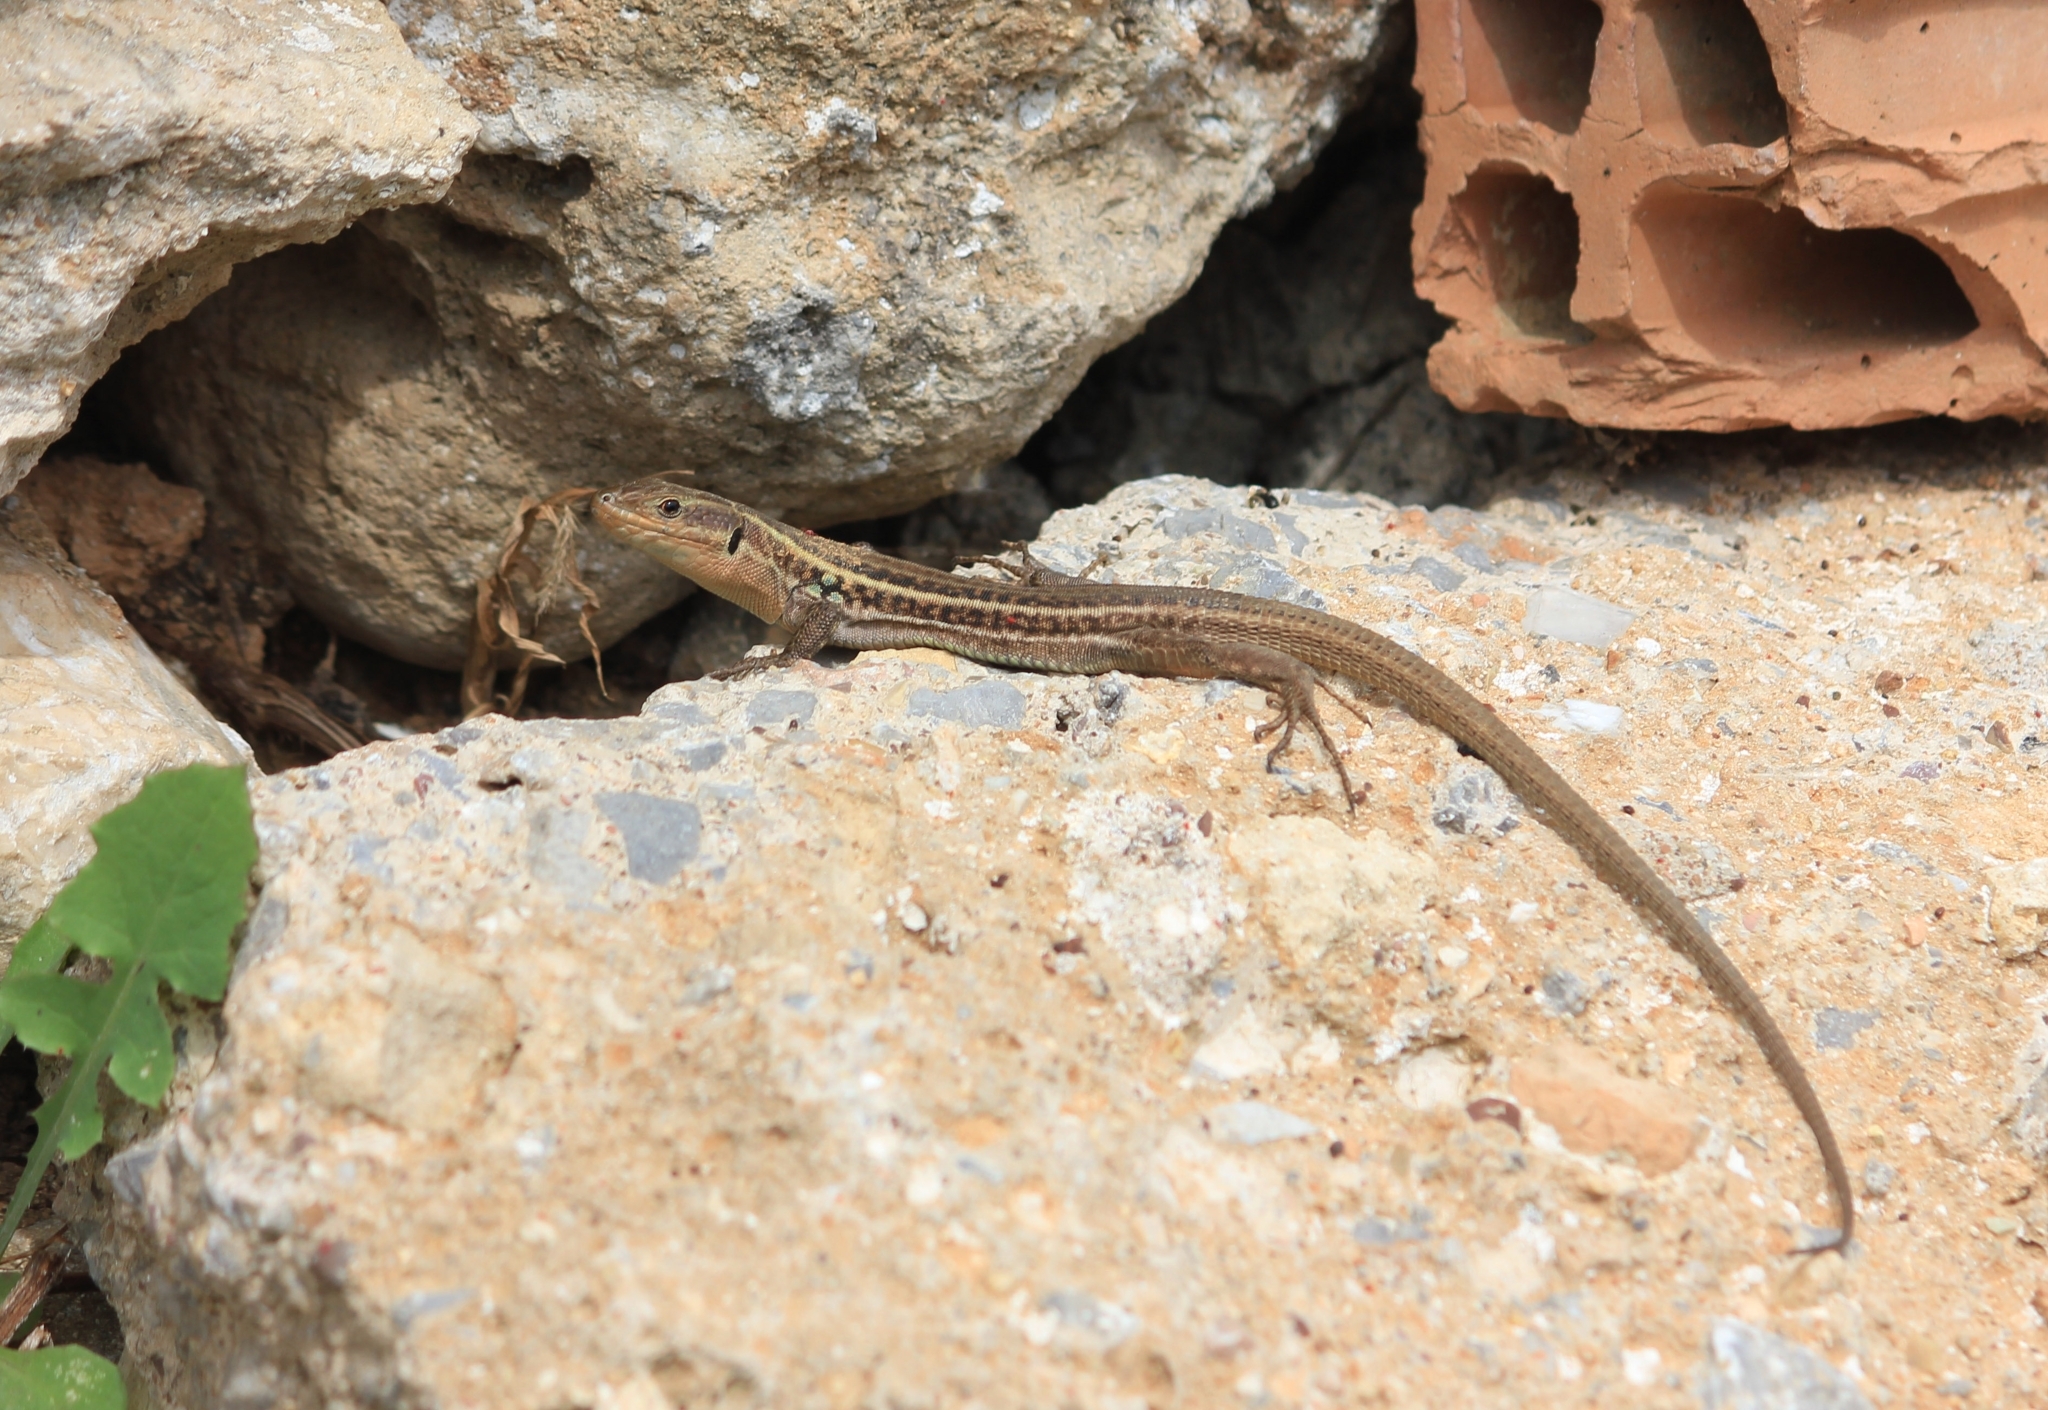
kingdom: Animalia
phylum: Chordata
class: Squamata
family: Lacertidae
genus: Podarcis
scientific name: Podarcis peloponnesiacus
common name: Peloponnese wall lizard
